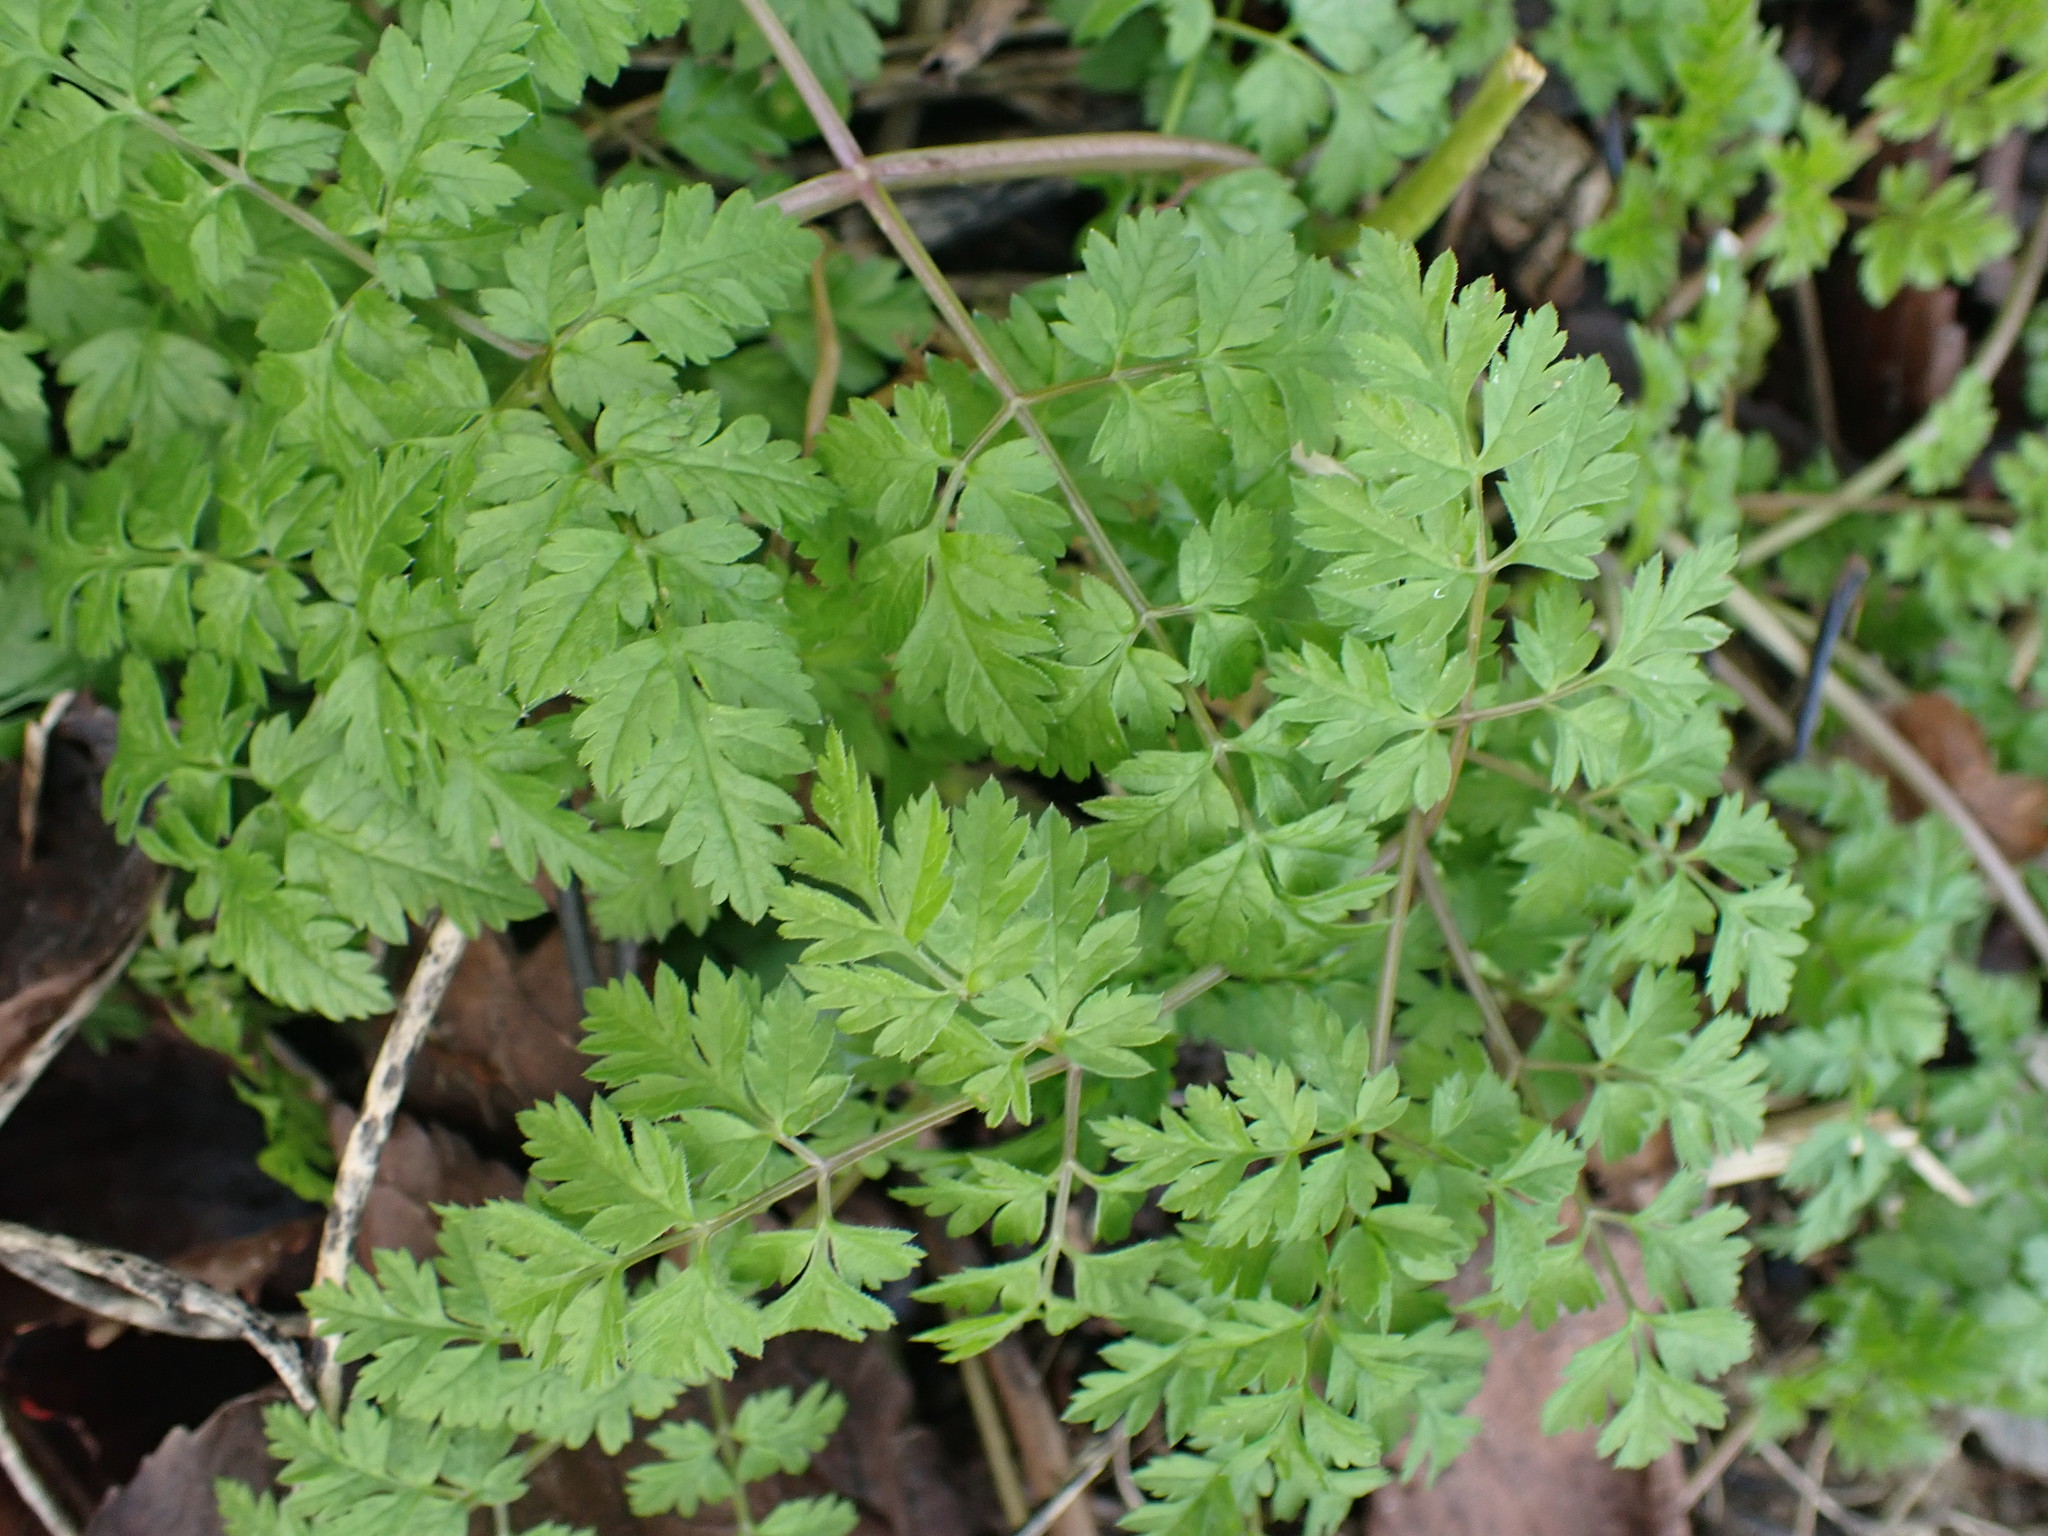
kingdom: Plantae
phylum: Tracheophyta
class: Magnoliopsida
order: Apiales
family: Apiaceae
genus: Anthriscus
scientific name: Anthriscus sylvestris
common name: Cow parsley
